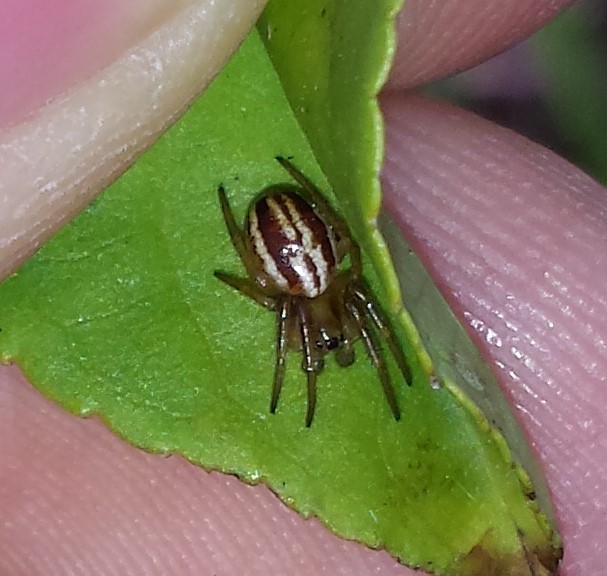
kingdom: Animalia
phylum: Arthropoda
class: Arachnida
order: Araneae
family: Araneidae
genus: Araneus
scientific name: Araneus pratensis
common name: Openfield orbweaver
